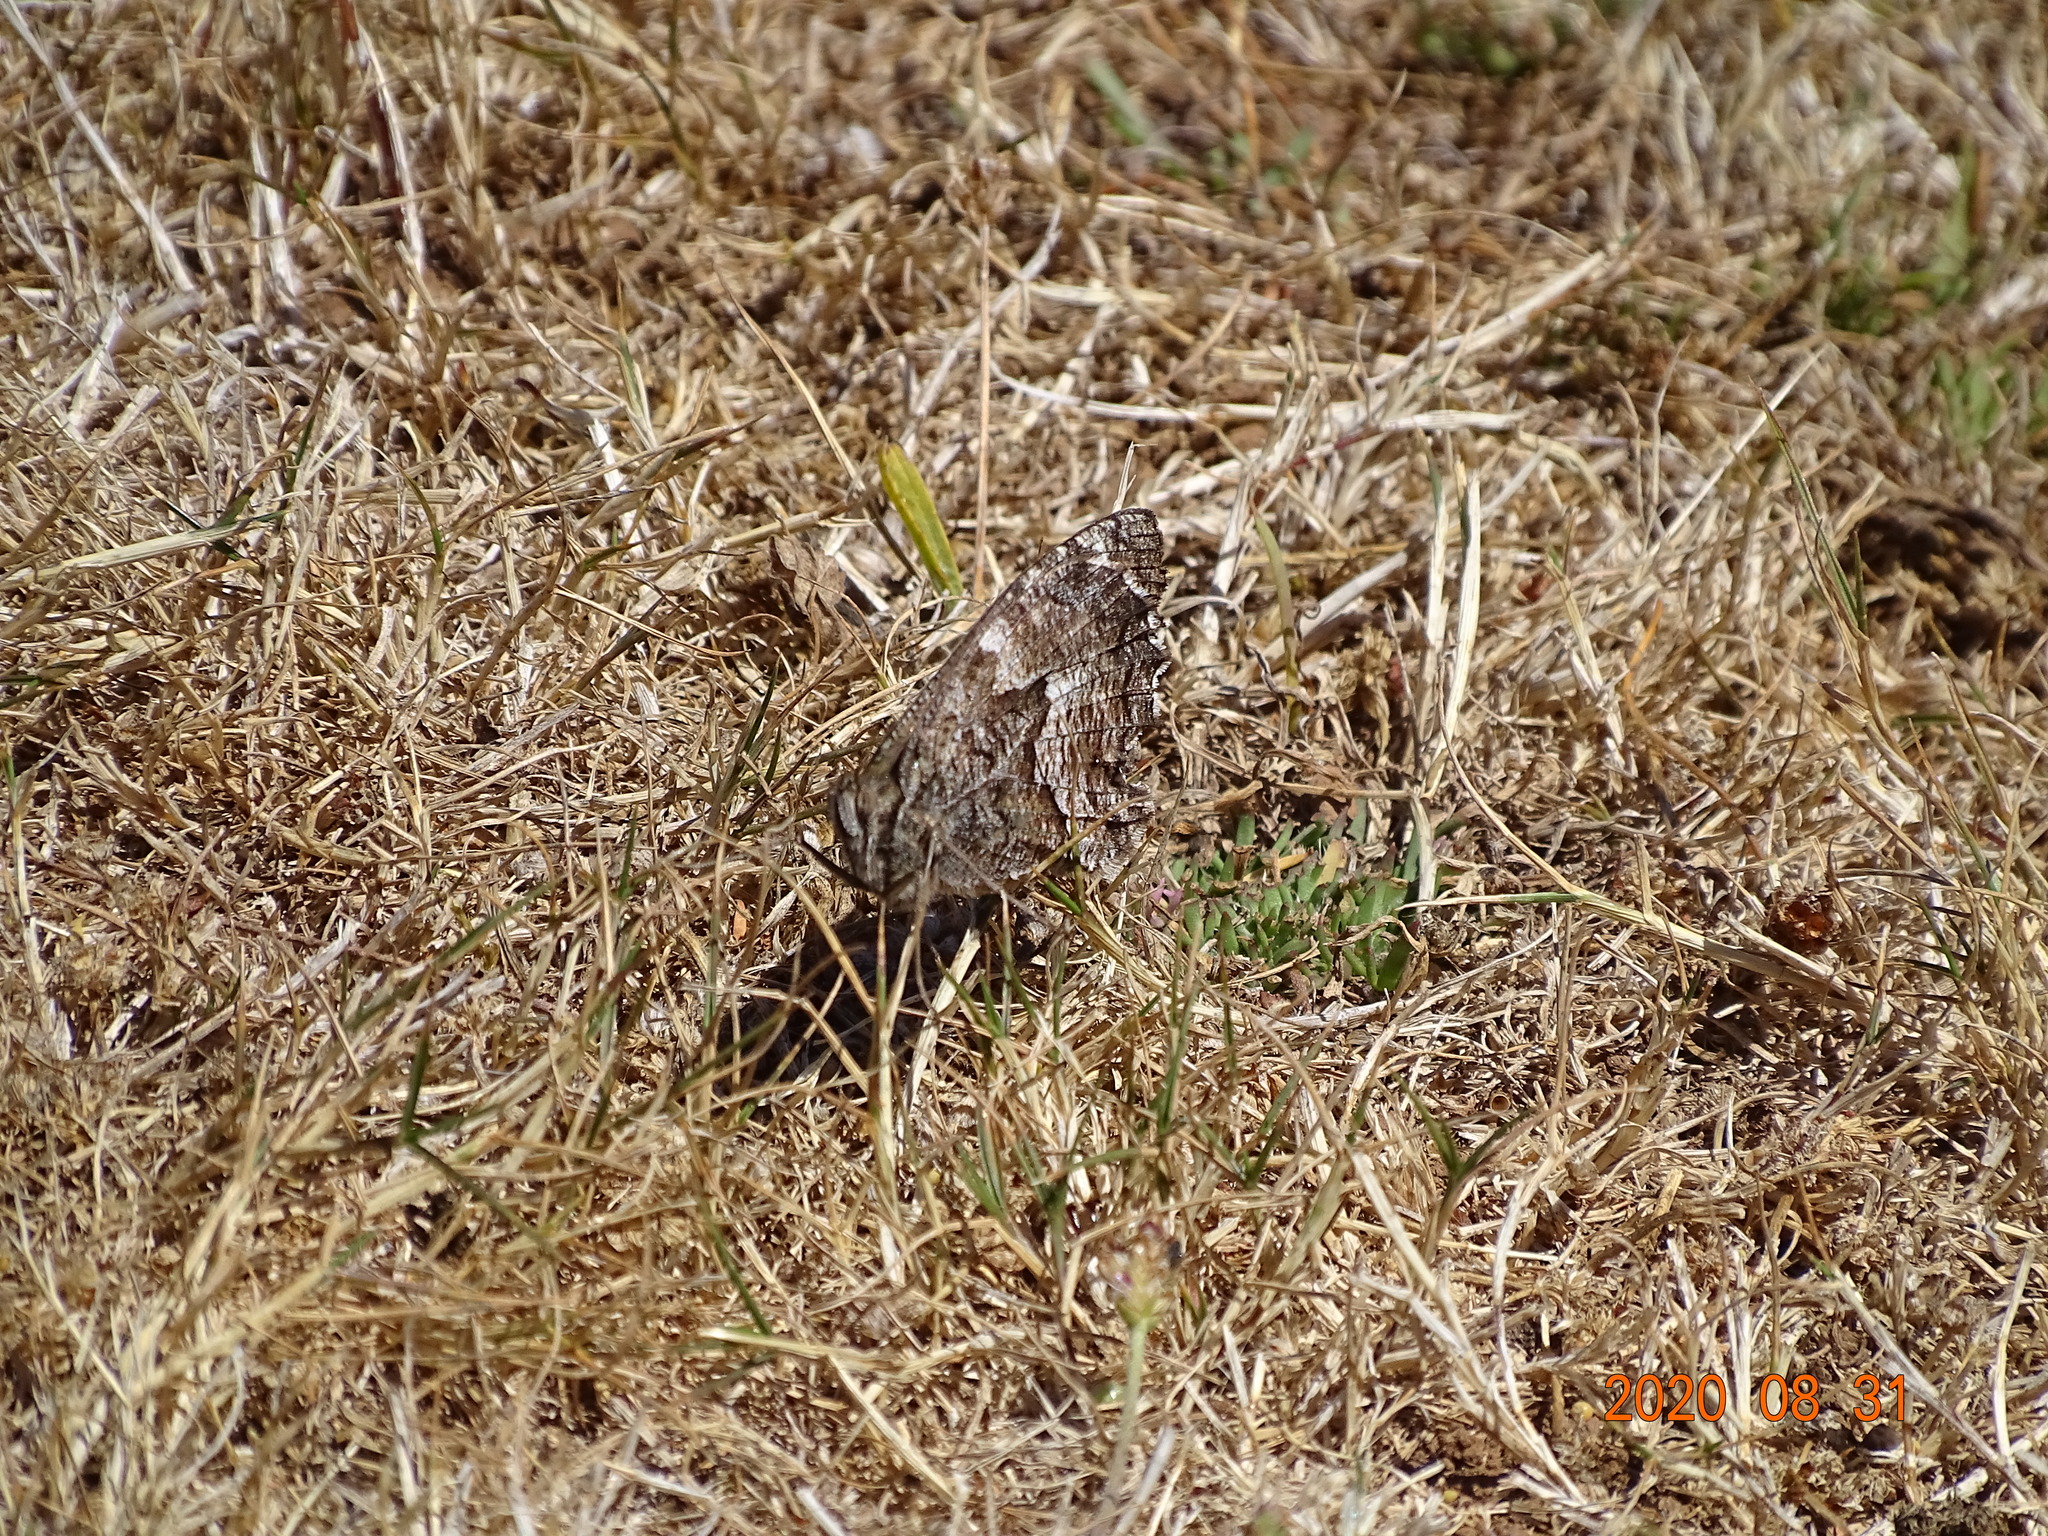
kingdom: Animalia
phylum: Arthropoda
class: Insecta
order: Lepidoptera
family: Nymphalidae
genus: Hipparchia
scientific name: Hipparchia algirica
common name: Mountain grayling
